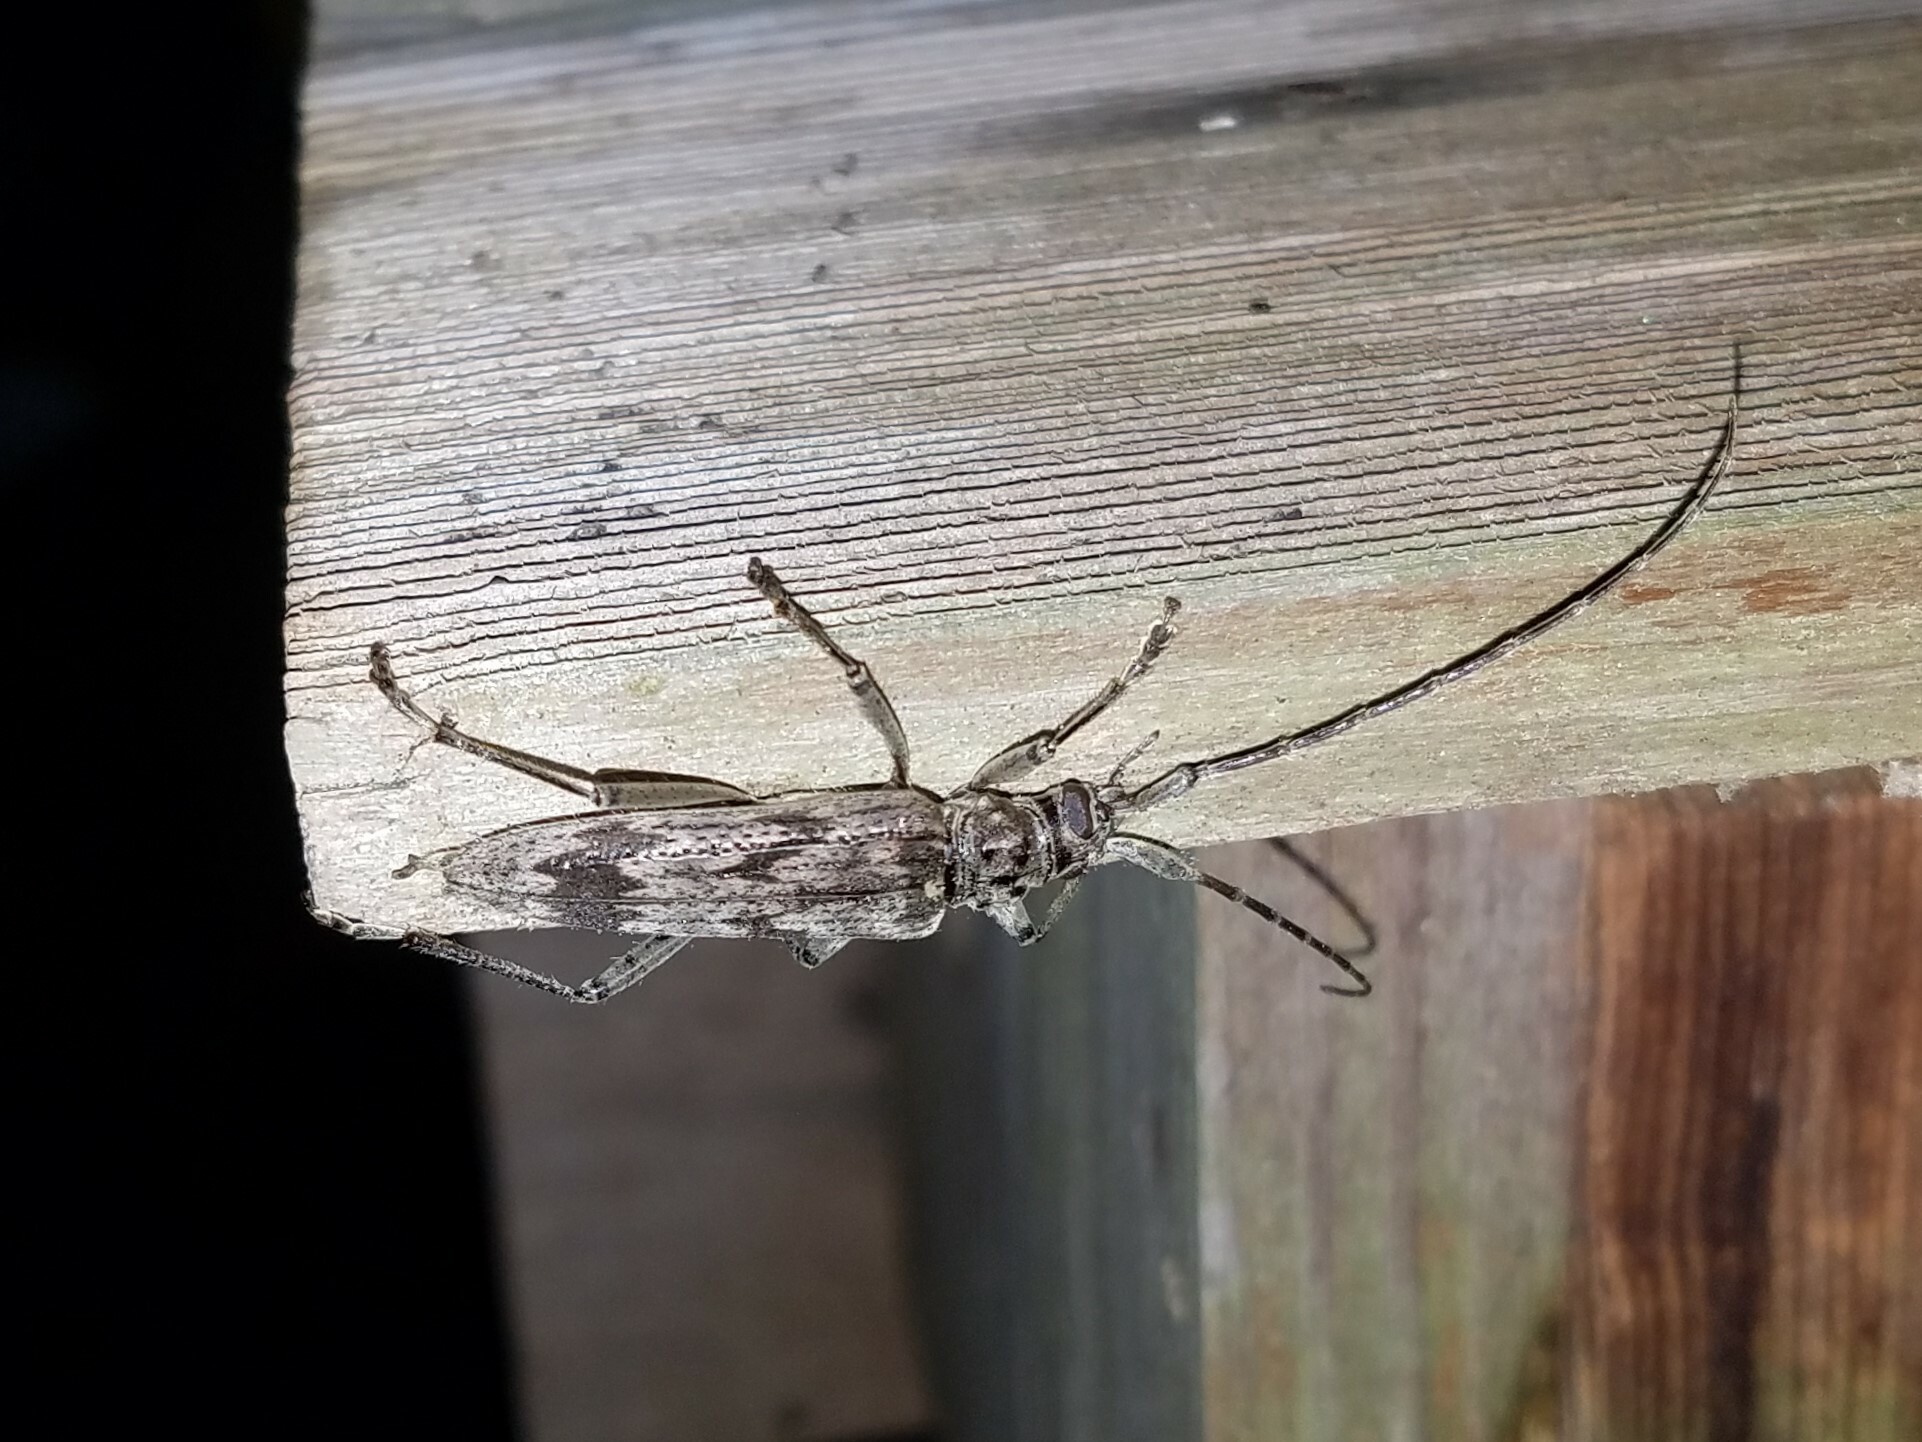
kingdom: Animalia
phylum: Arthropoda
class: Insecta
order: Coleoptera
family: Cerambycidae
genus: Elytrimitatrix
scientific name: Elytrimitatrix undata
